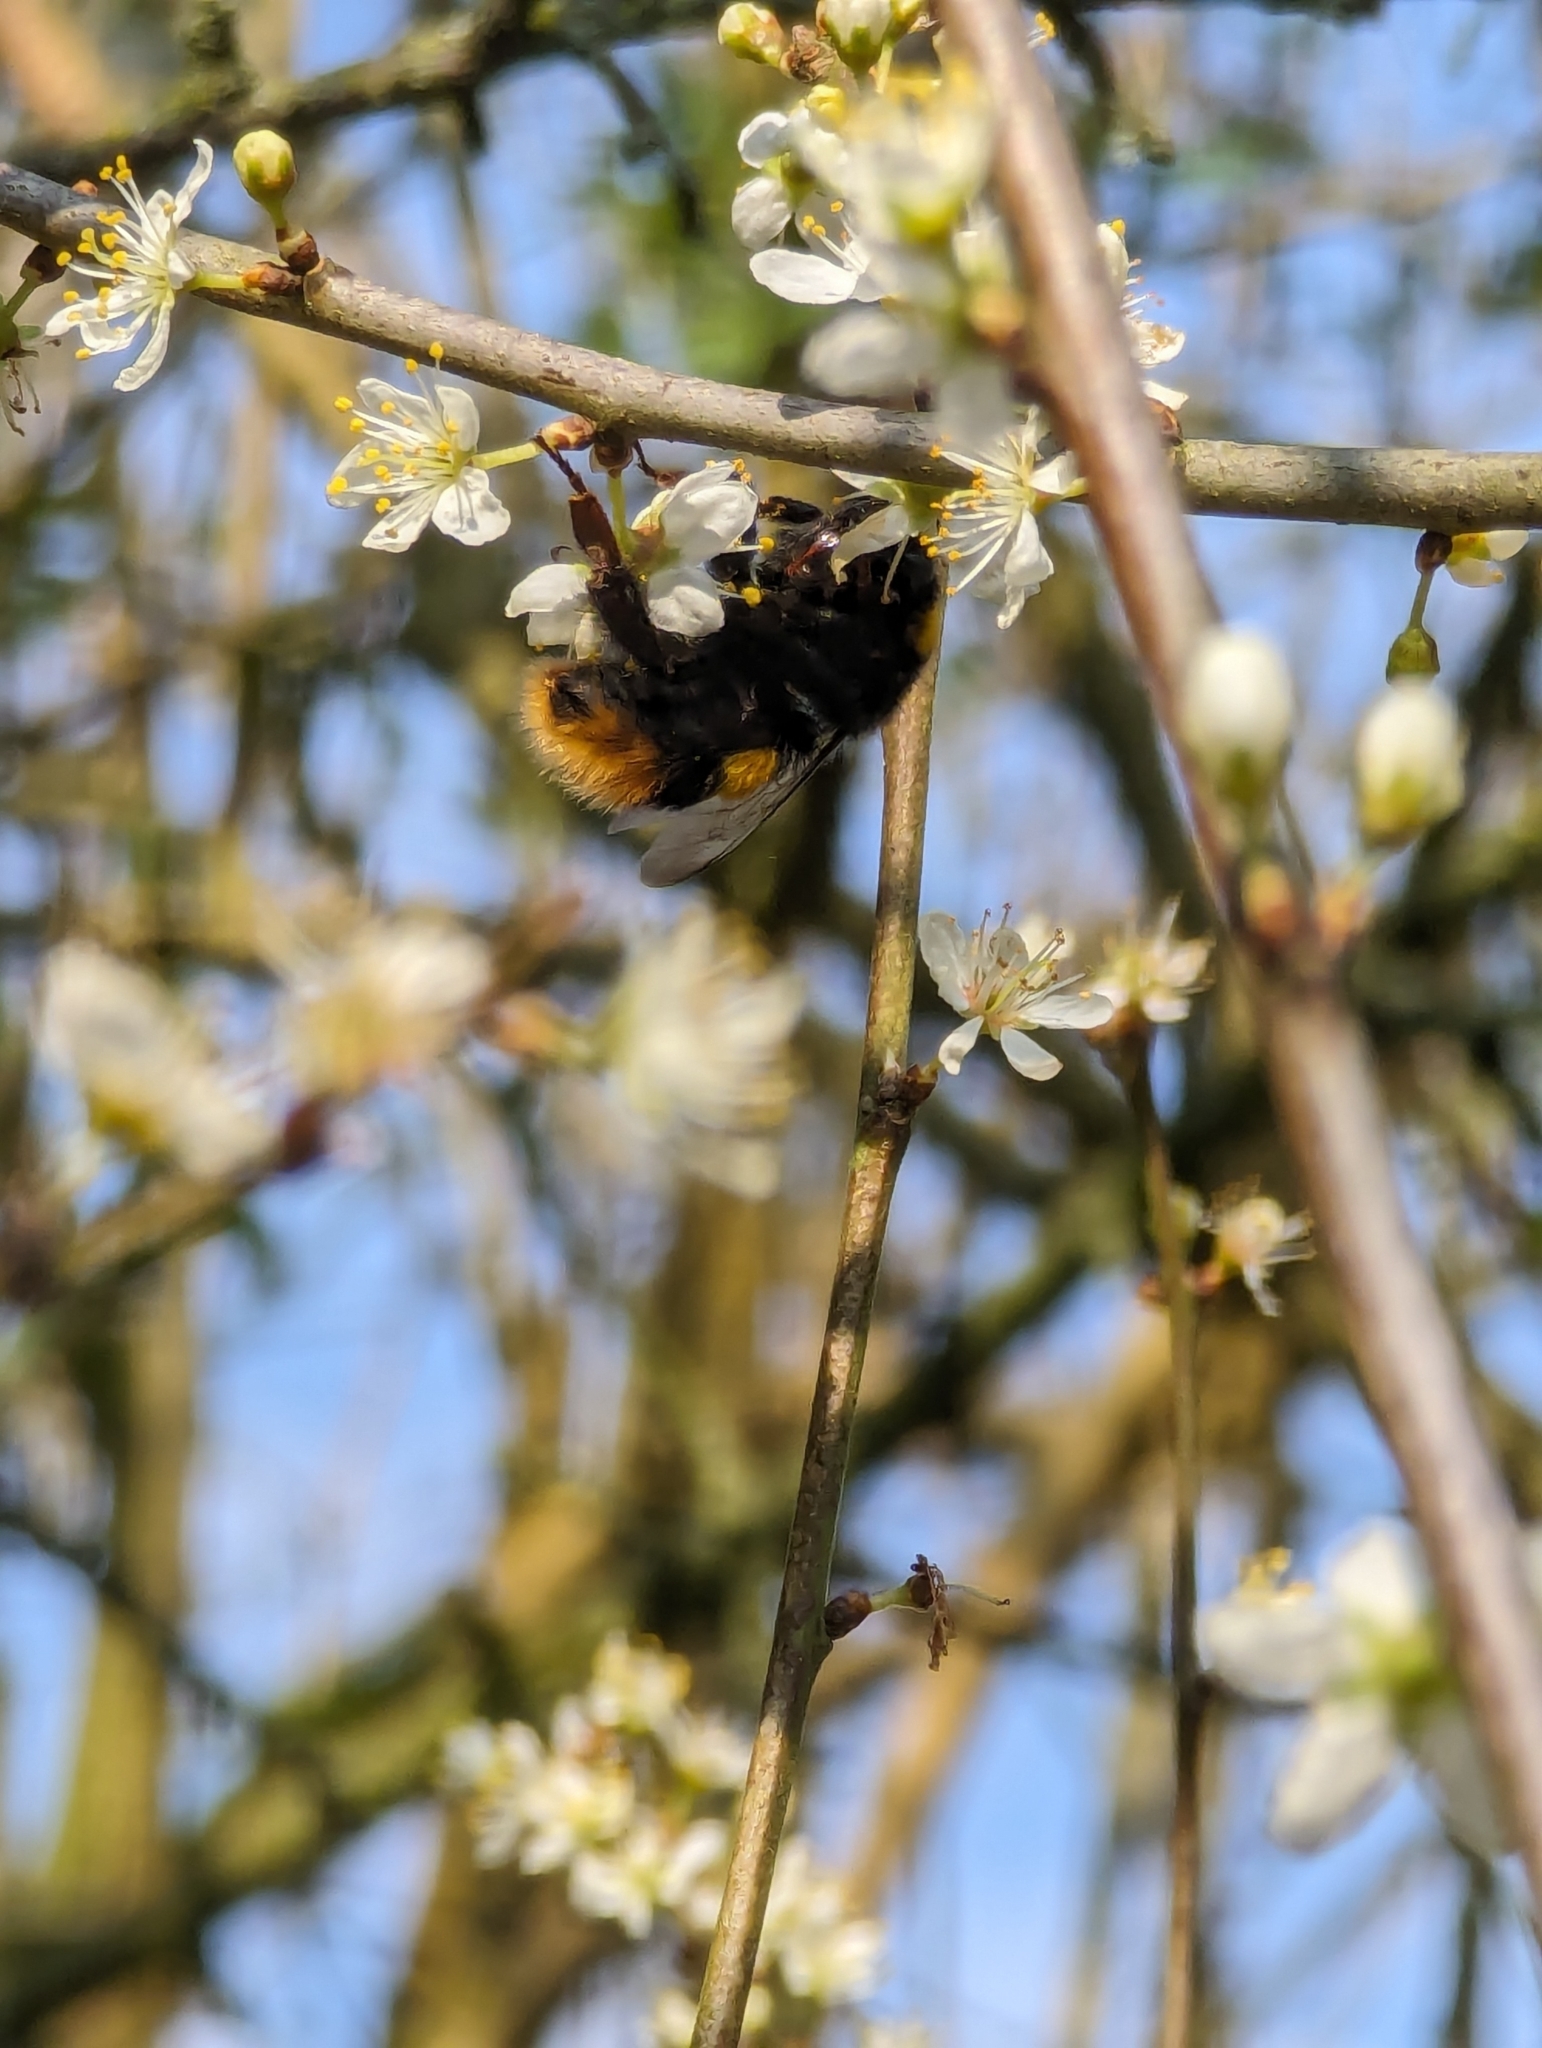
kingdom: Animalia
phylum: Arthropoda
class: Insecta
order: Hymenoptera
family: Apidae
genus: Bombus
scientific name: Bombus terrestris
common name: Buff-tailed bumblebee
